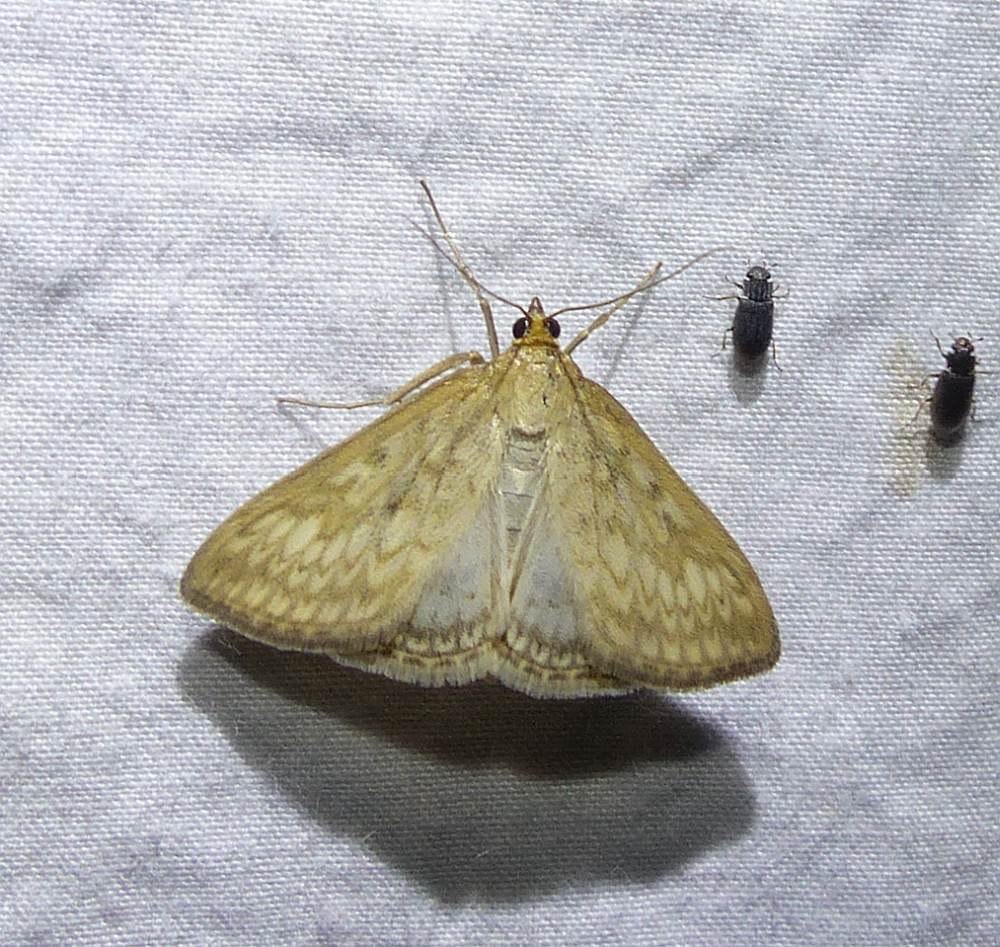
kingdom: Animalia
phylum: Arthropoda
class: Insecta
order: Lepidoptera
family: Crambidae
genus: Sitochroa
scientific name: Sitochroa chortalis
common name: Dimorphic sitochroa moth
